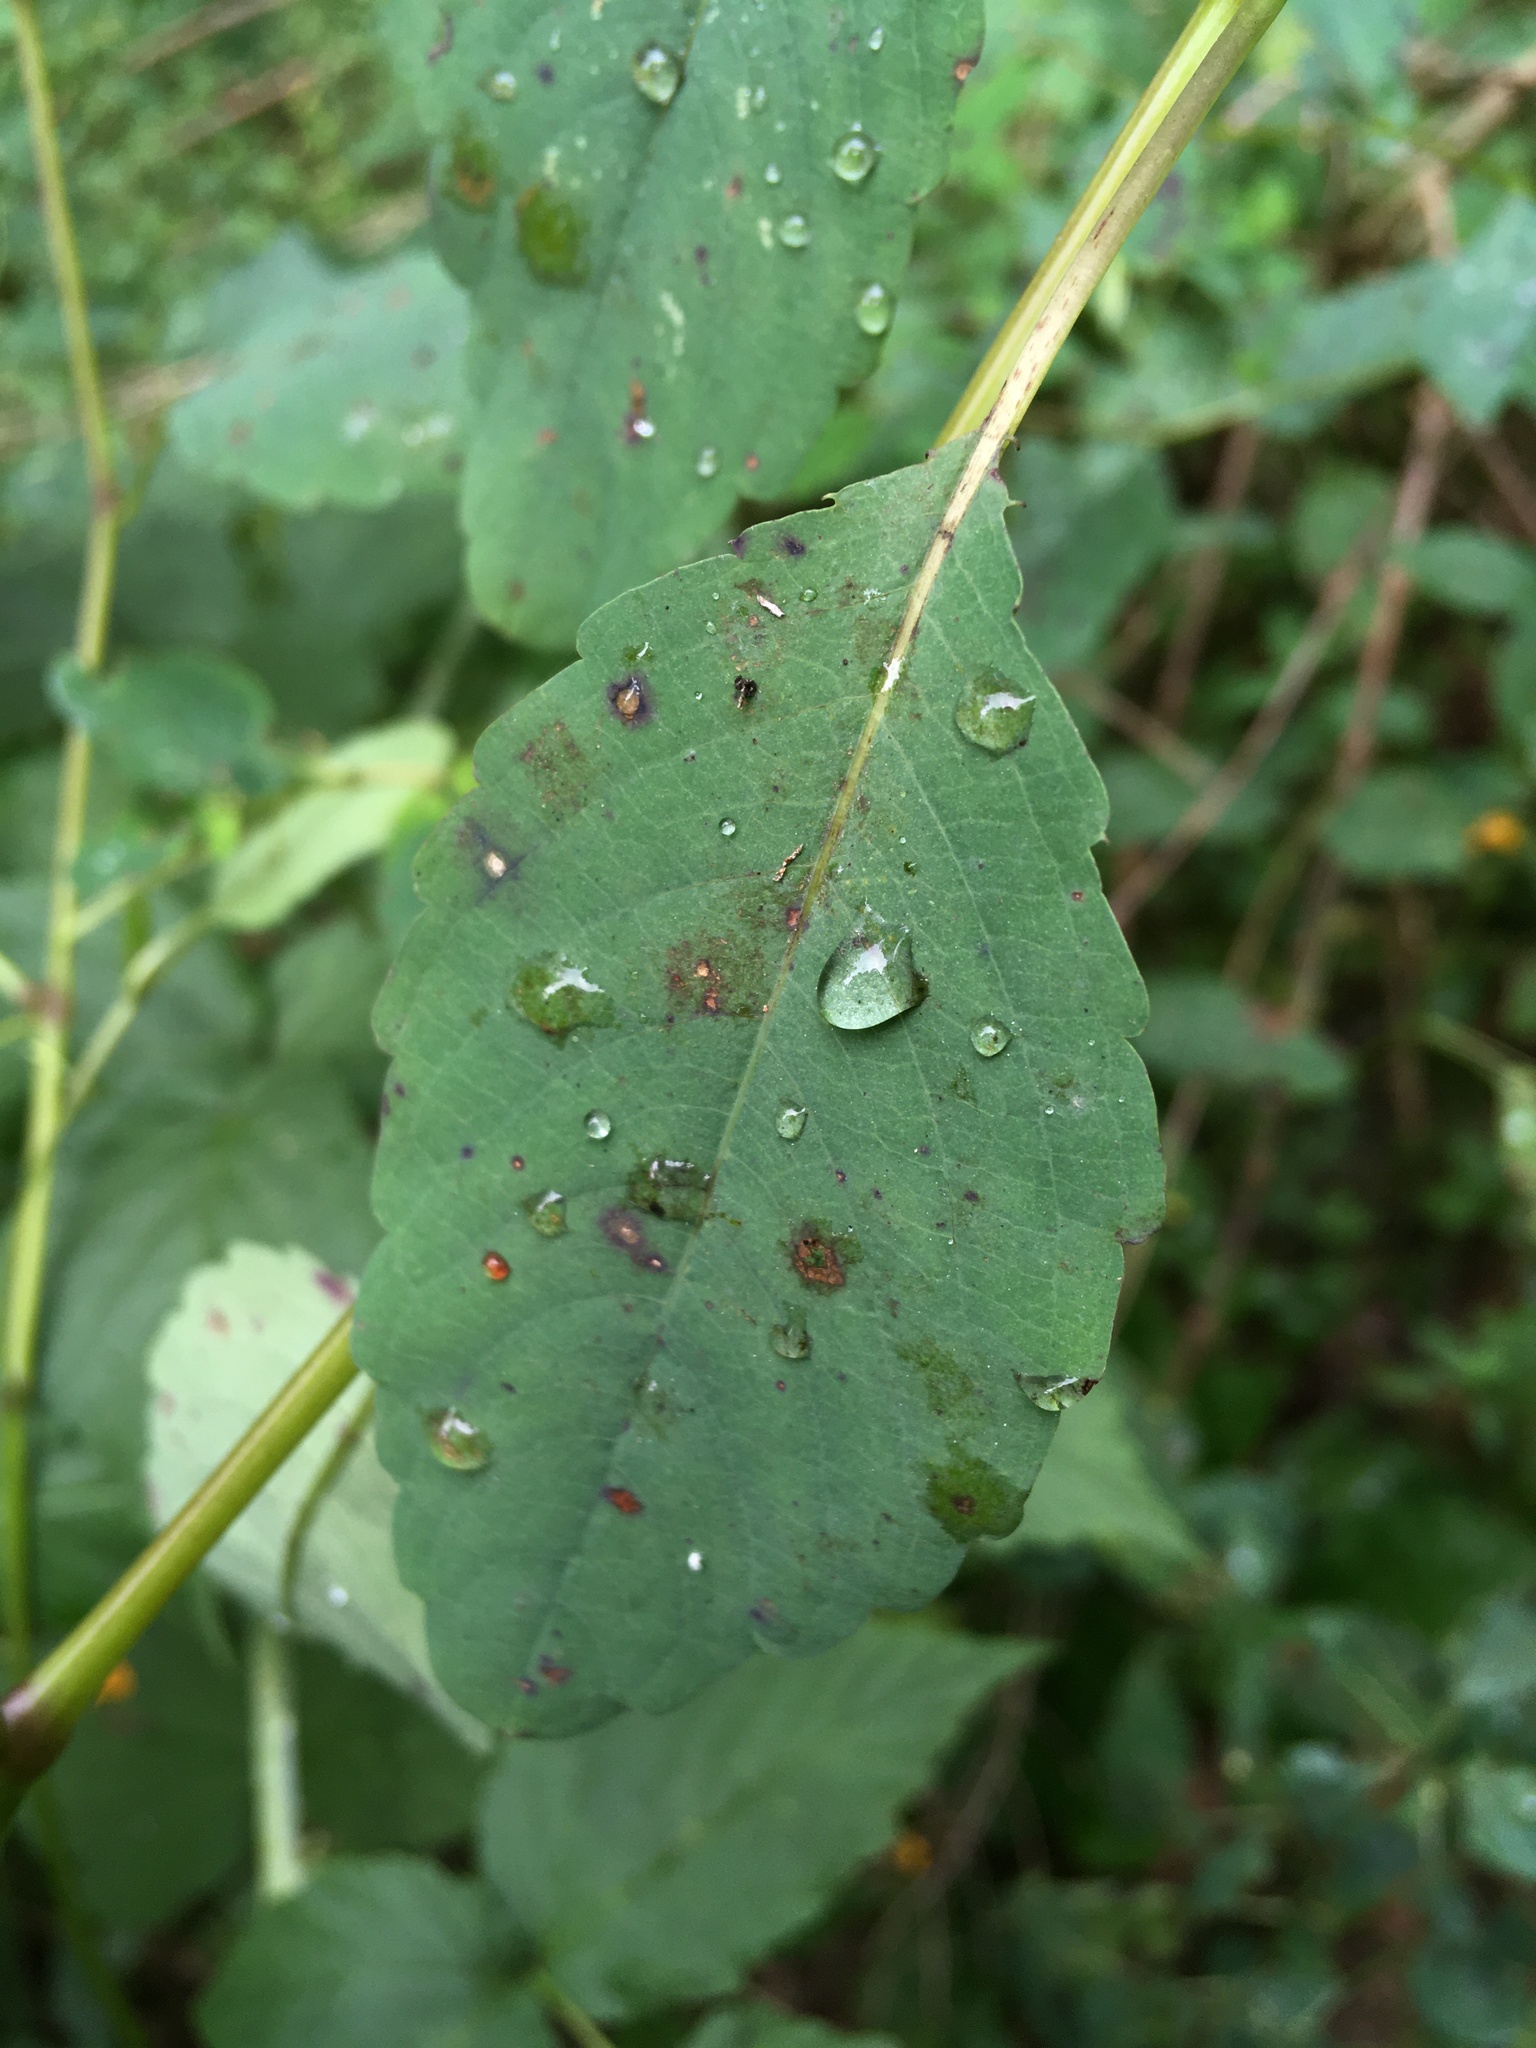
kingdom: Plantae
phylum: Tracheophyta
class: Magnoliopsida
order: Ericales
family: Balsaminaceae
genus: Impatiens
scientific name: Impatiens capensis
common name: Orange balsam
